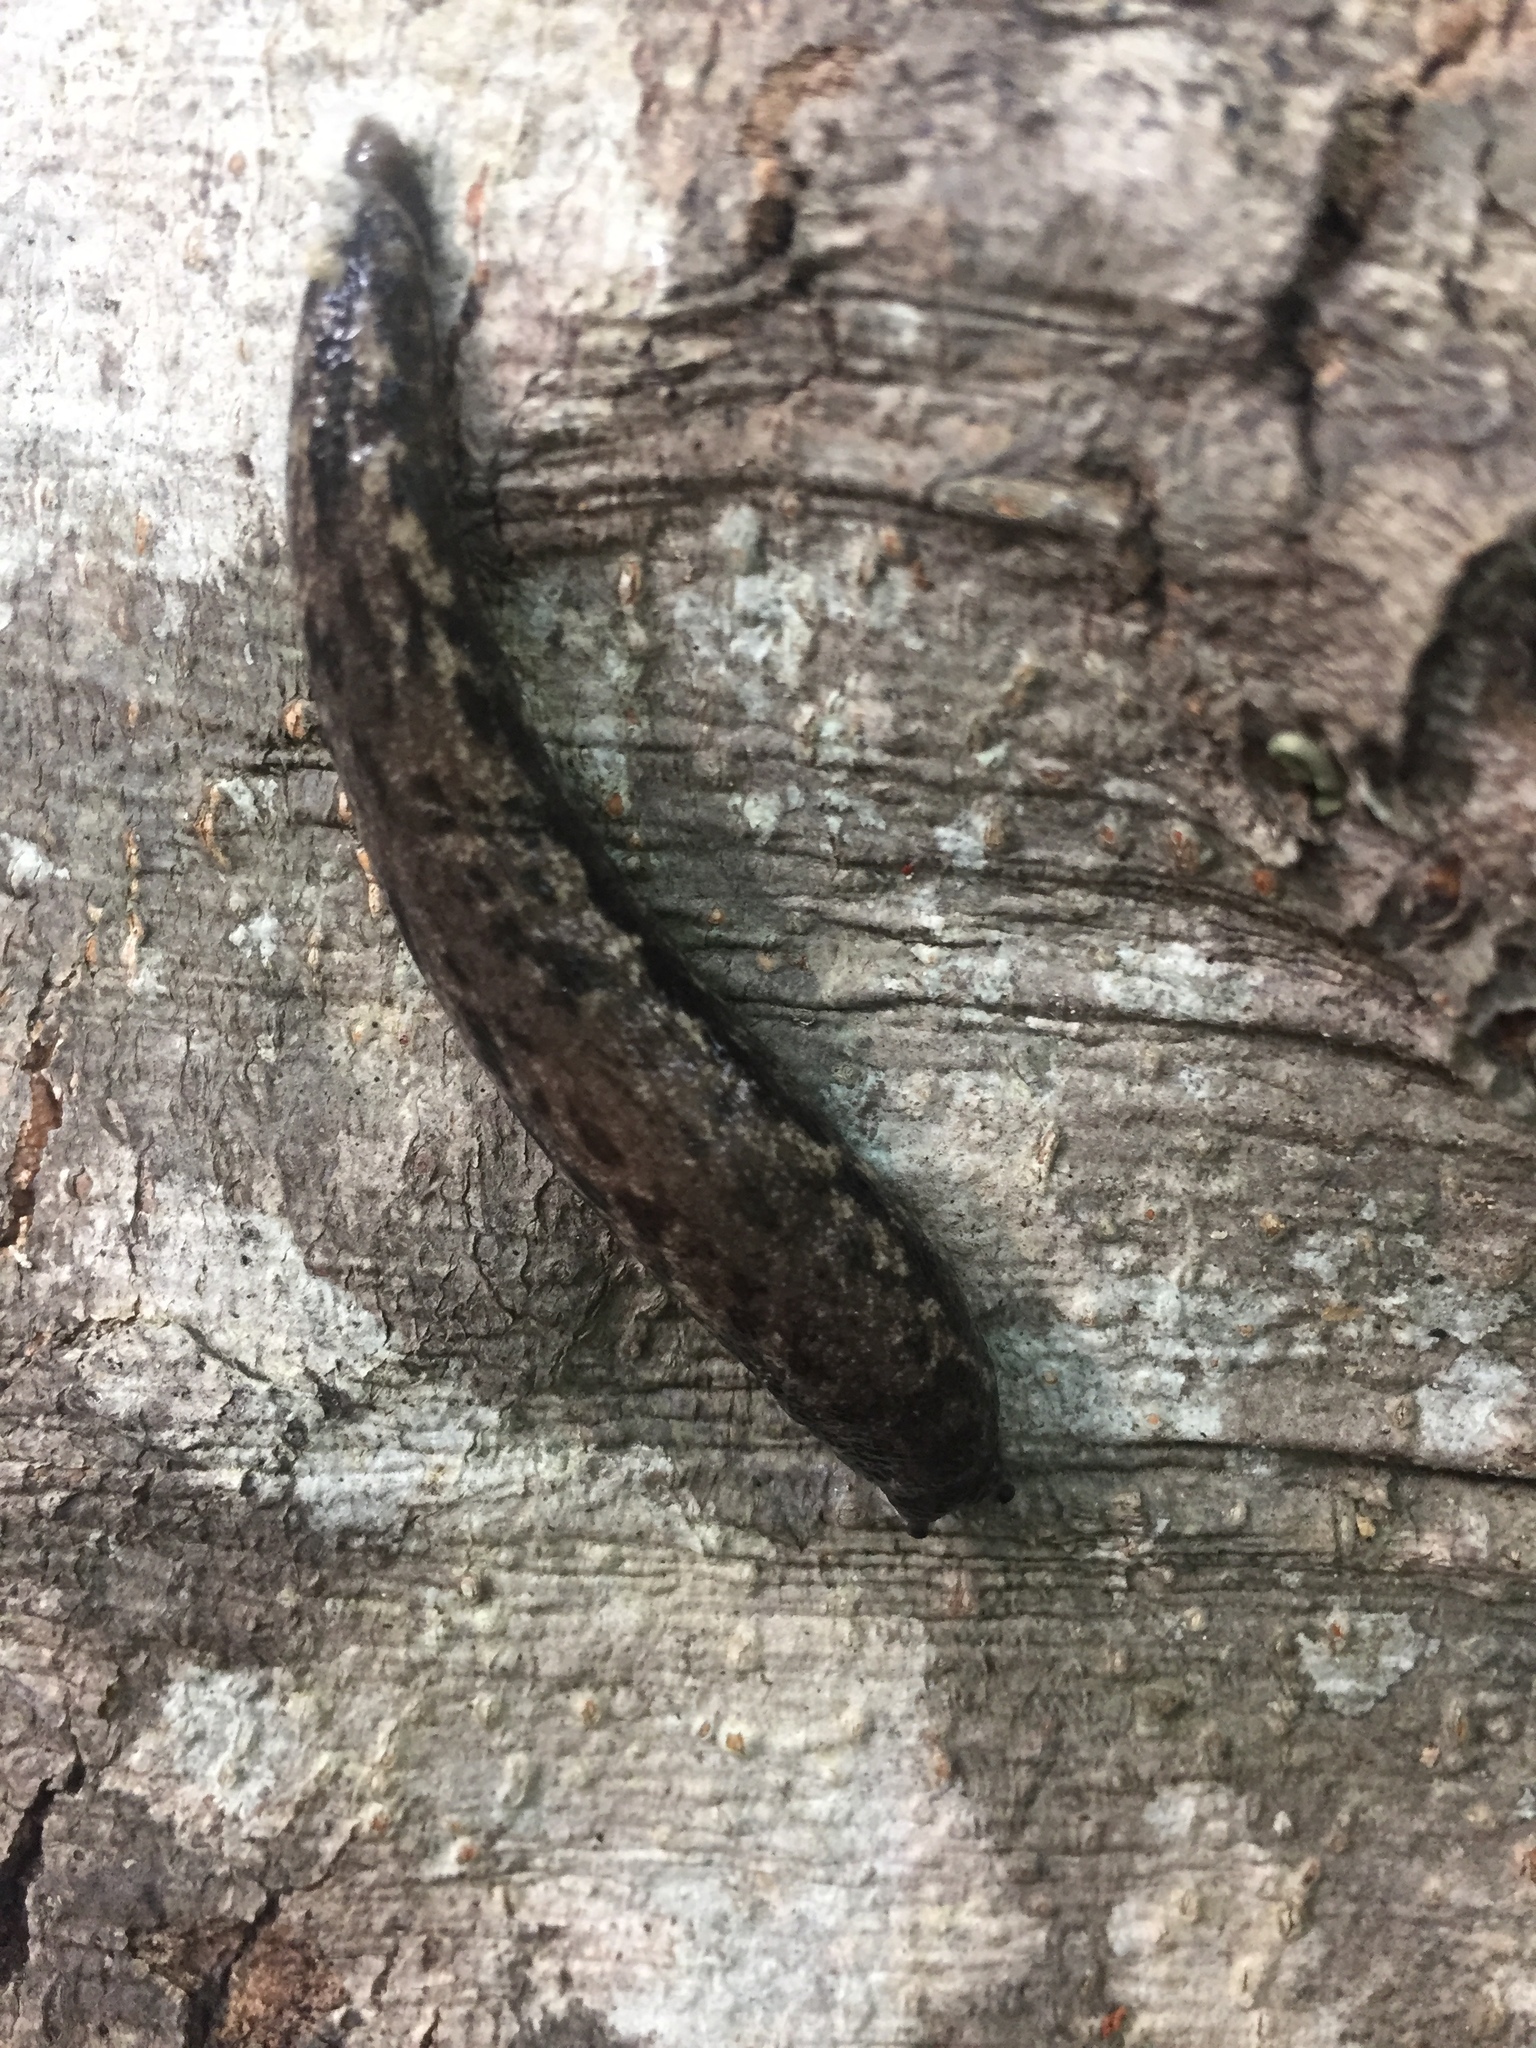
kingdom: Animalia
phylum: Mollusca
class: Gastropoda
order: Stylommatophora
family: Philomycidae
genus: Megapallifera
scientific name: Megapallifera mutabilis
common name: Changeable mantleslug
